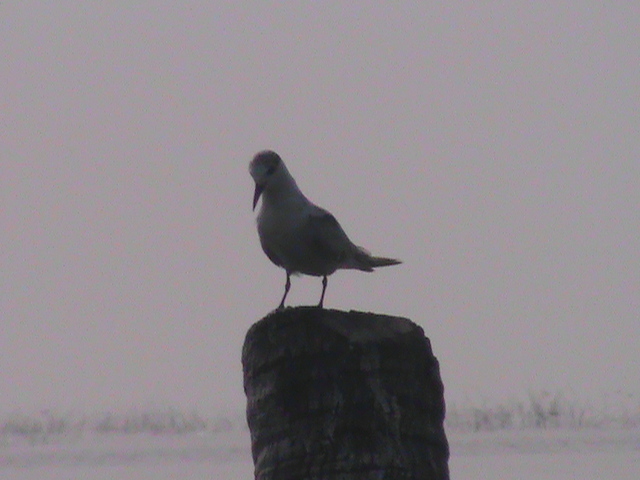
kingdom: Animalia
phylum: Chordata
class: Aves
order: Charadriiformes
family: Laridae
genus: Chlidonias
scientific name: Chlidonias hybrida
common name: Whiskered tern
